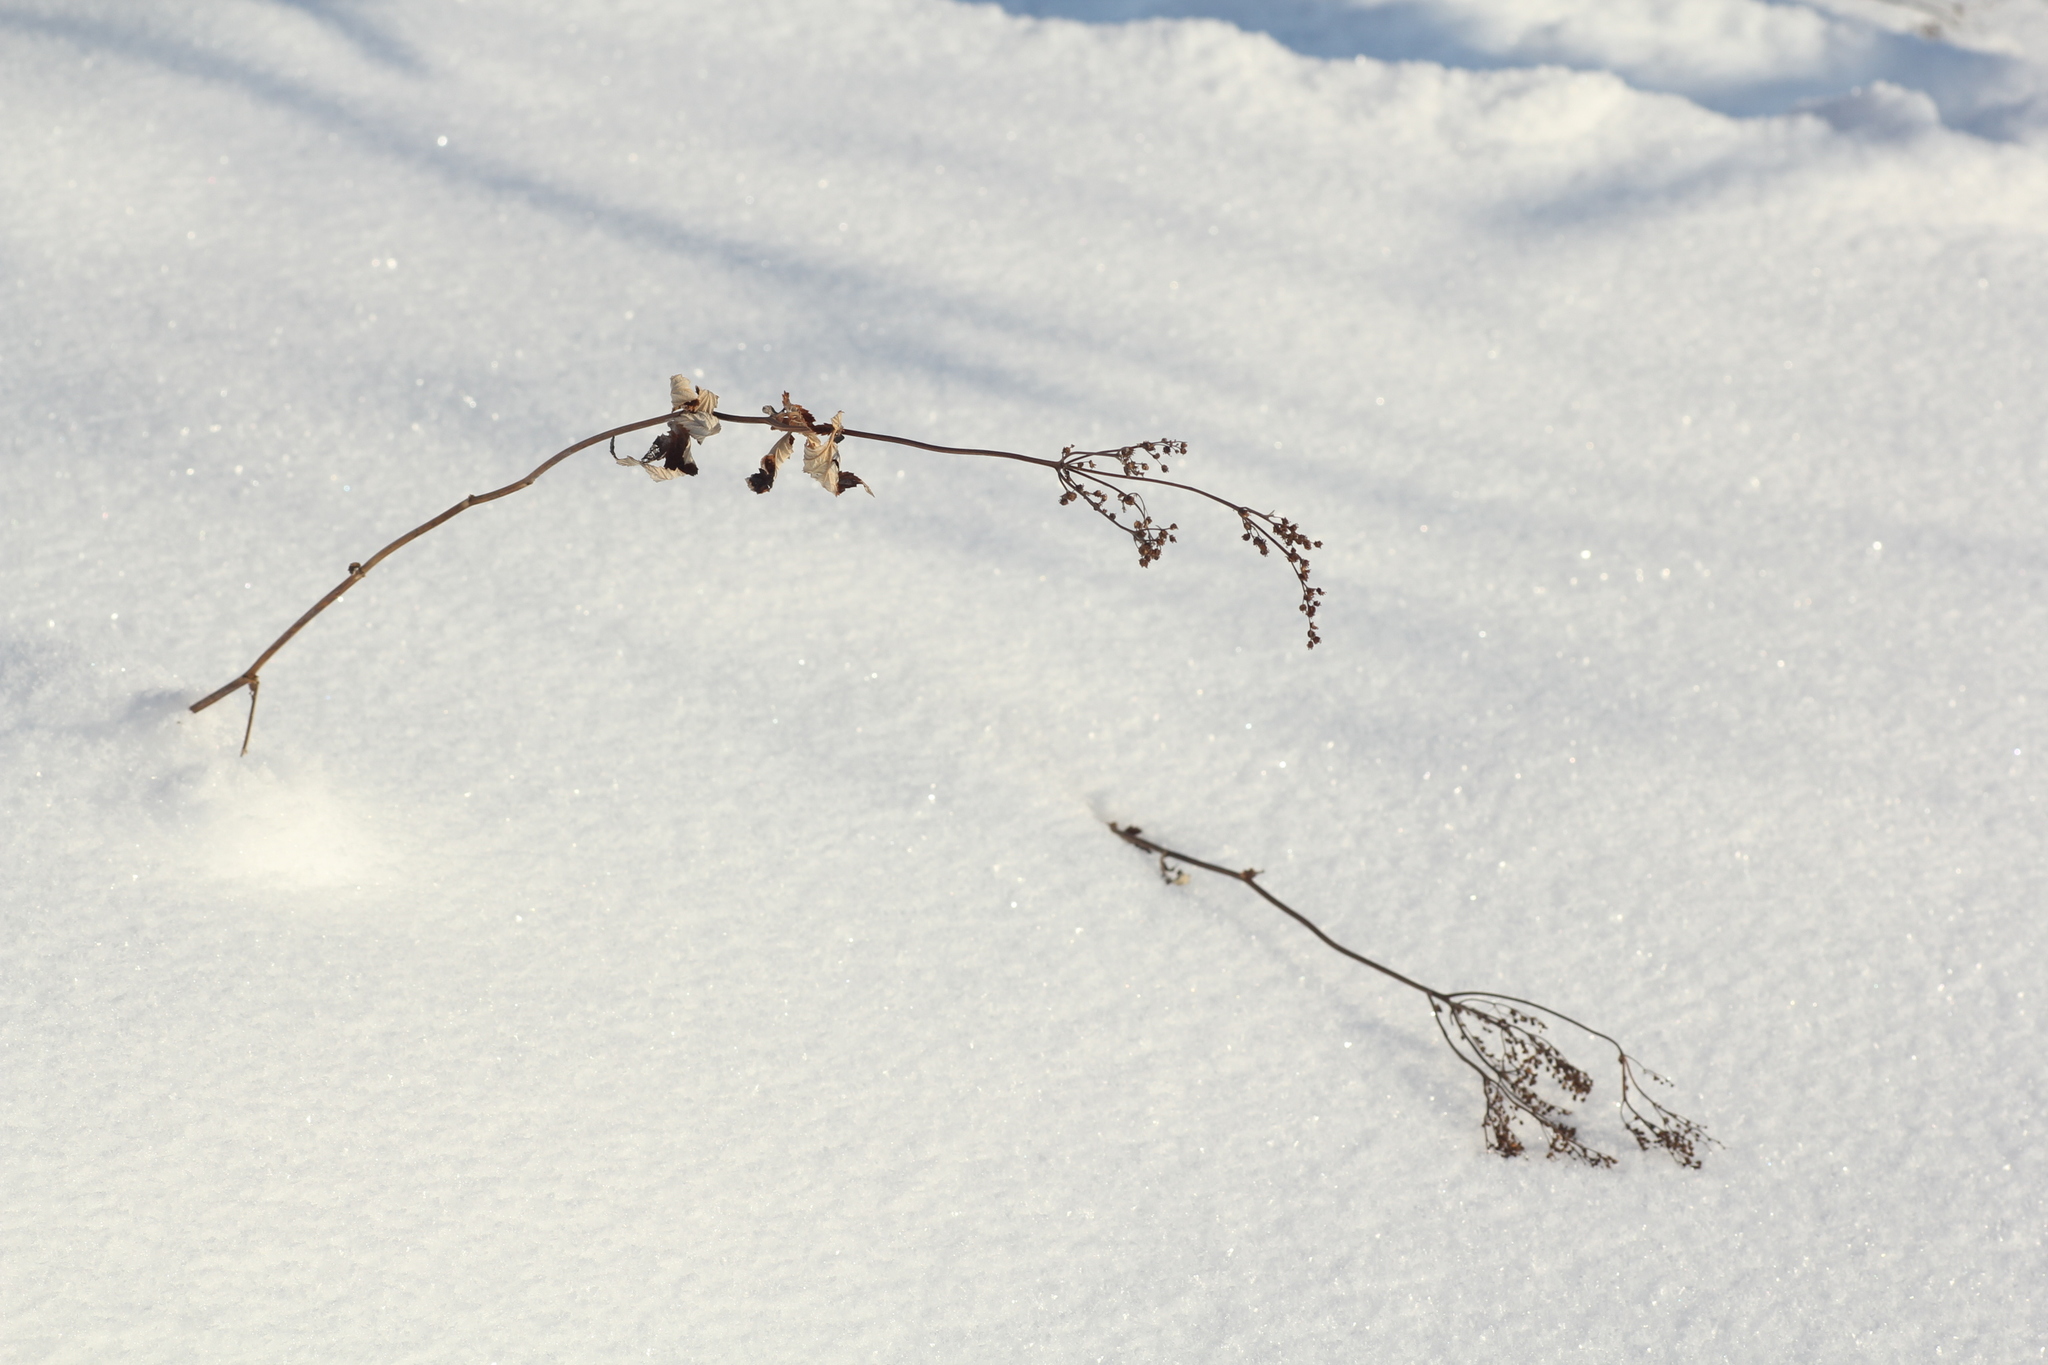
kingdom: Plantae
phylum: Tracheophyta
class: Magnoliopsida
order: Rosales
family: Rosaceae
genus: Filipendula
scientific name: Filipendula ulmaria
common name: Meadowsweet
